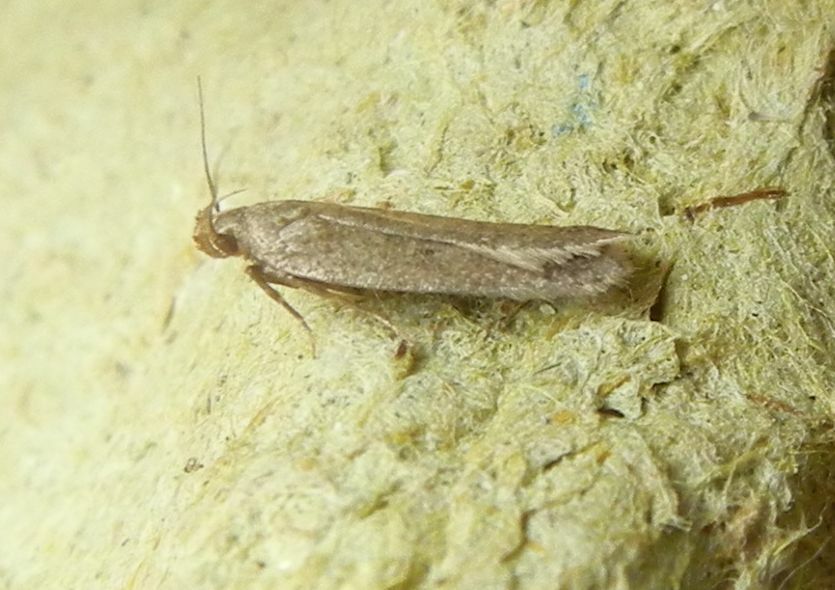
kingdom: Animalia
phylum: Arthropoda
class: Insecta
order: Lepidoptera
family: Gelechiidae
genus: Bryotropha
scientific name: Bryotropha terrella
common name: Cinerous groundling
